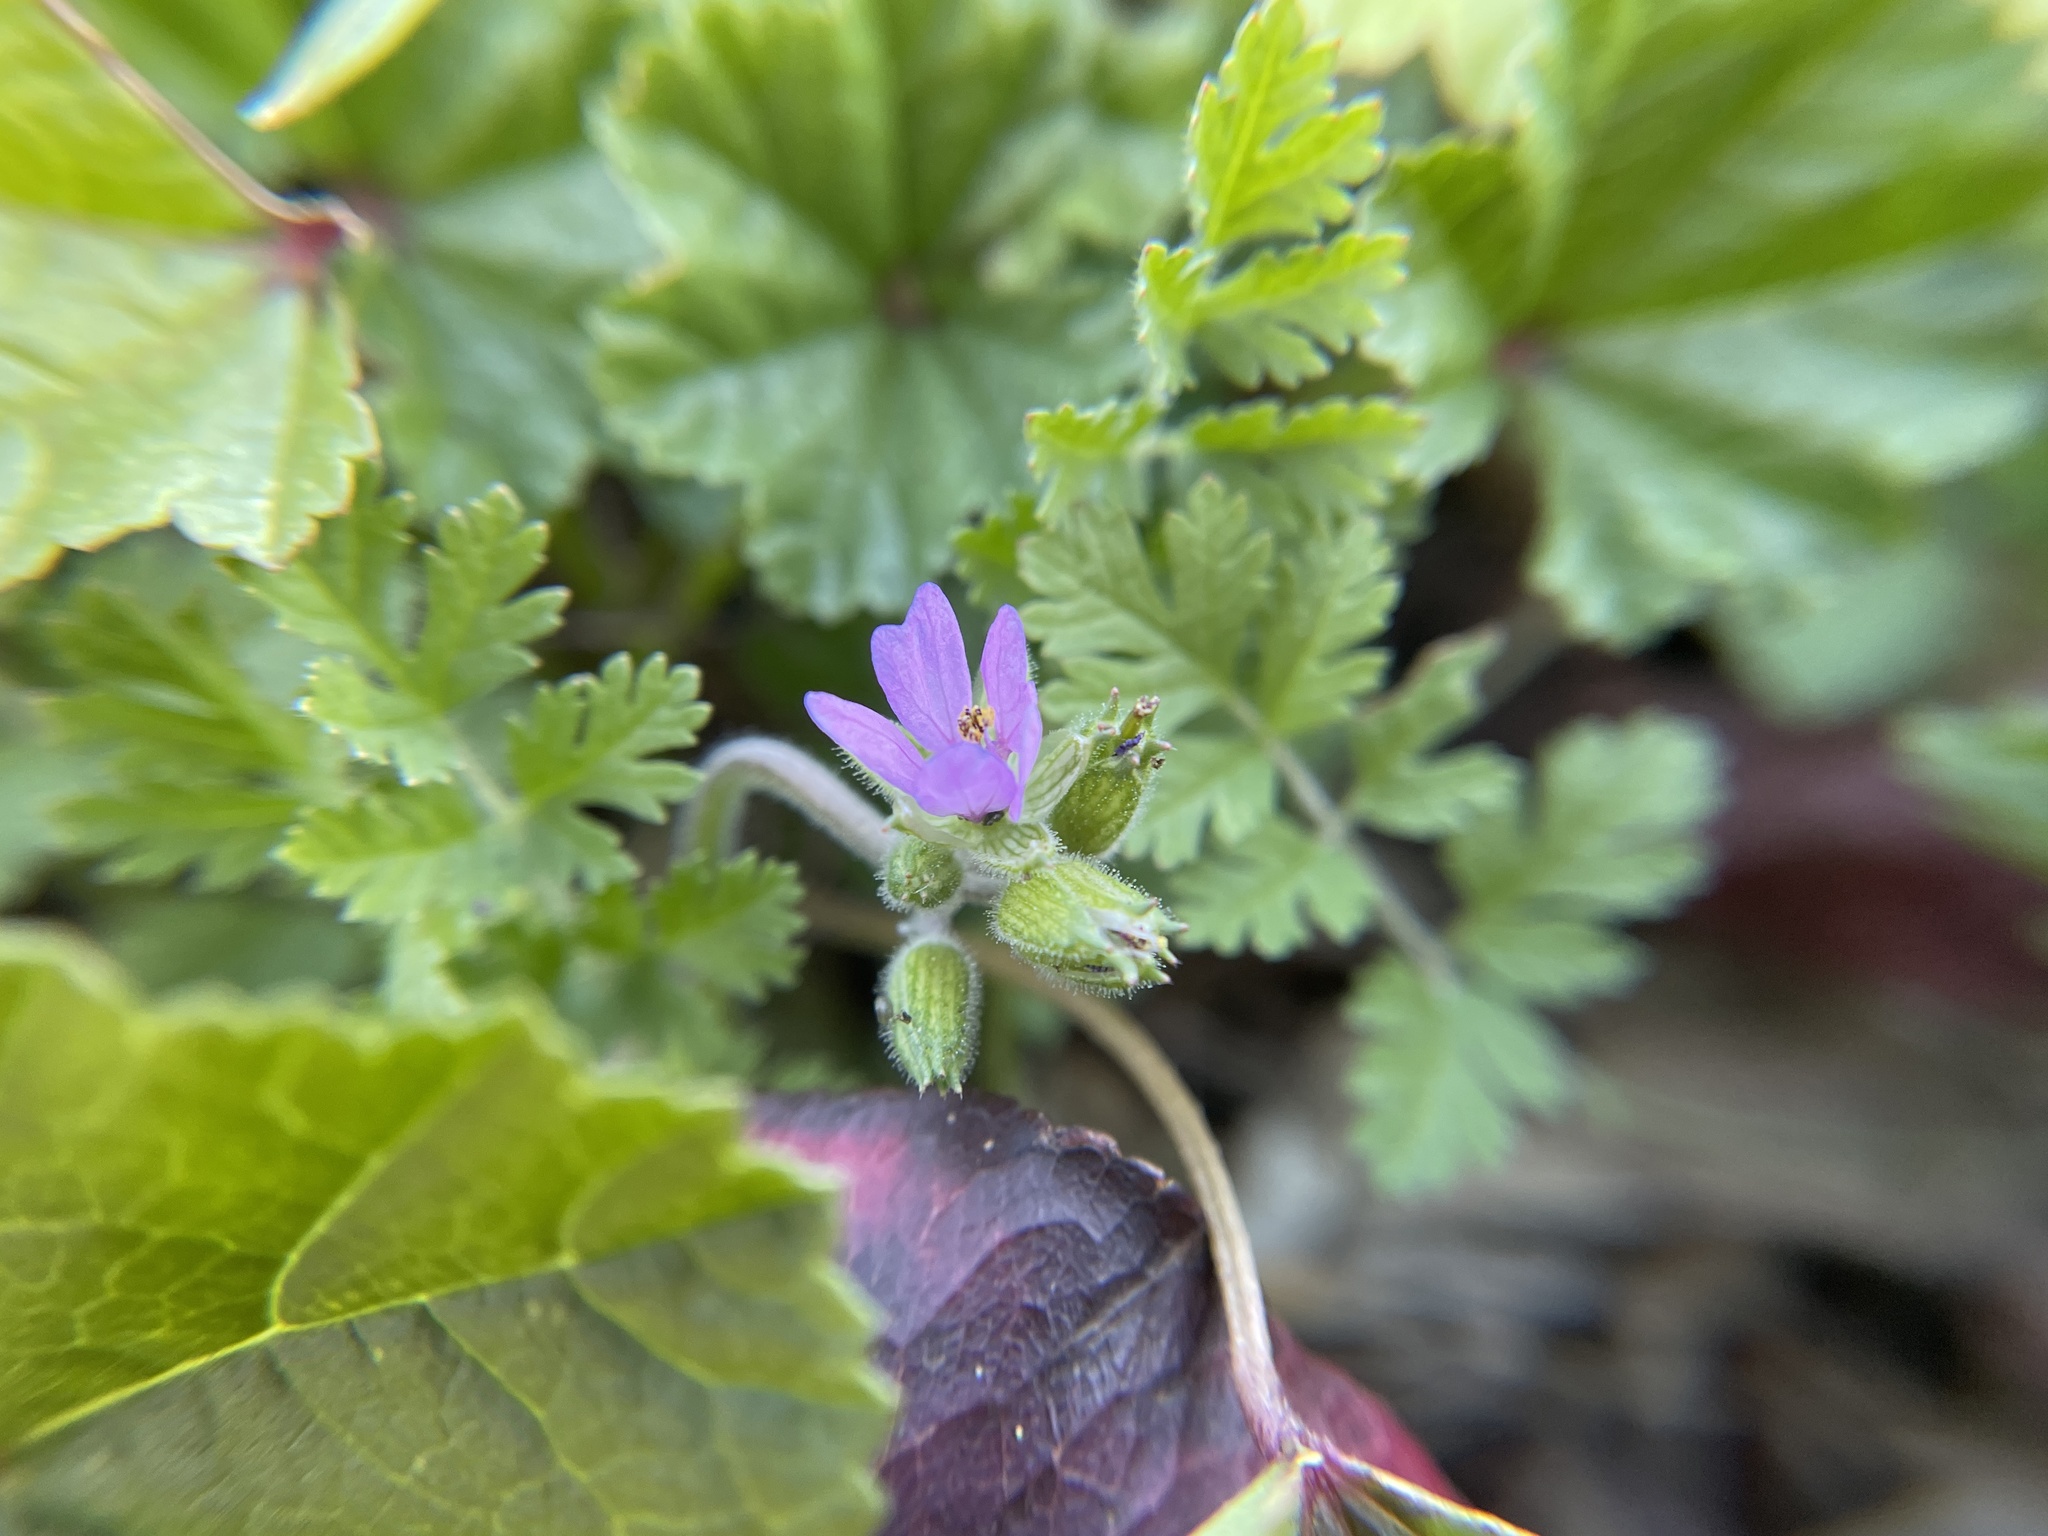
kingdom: Plantae
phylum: Tracheophyta
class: Magnoliopsida
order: Geraniales
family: Geraniaceae
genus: Erodium
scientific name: Erodium moschatum
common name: Musk stork's-bill
